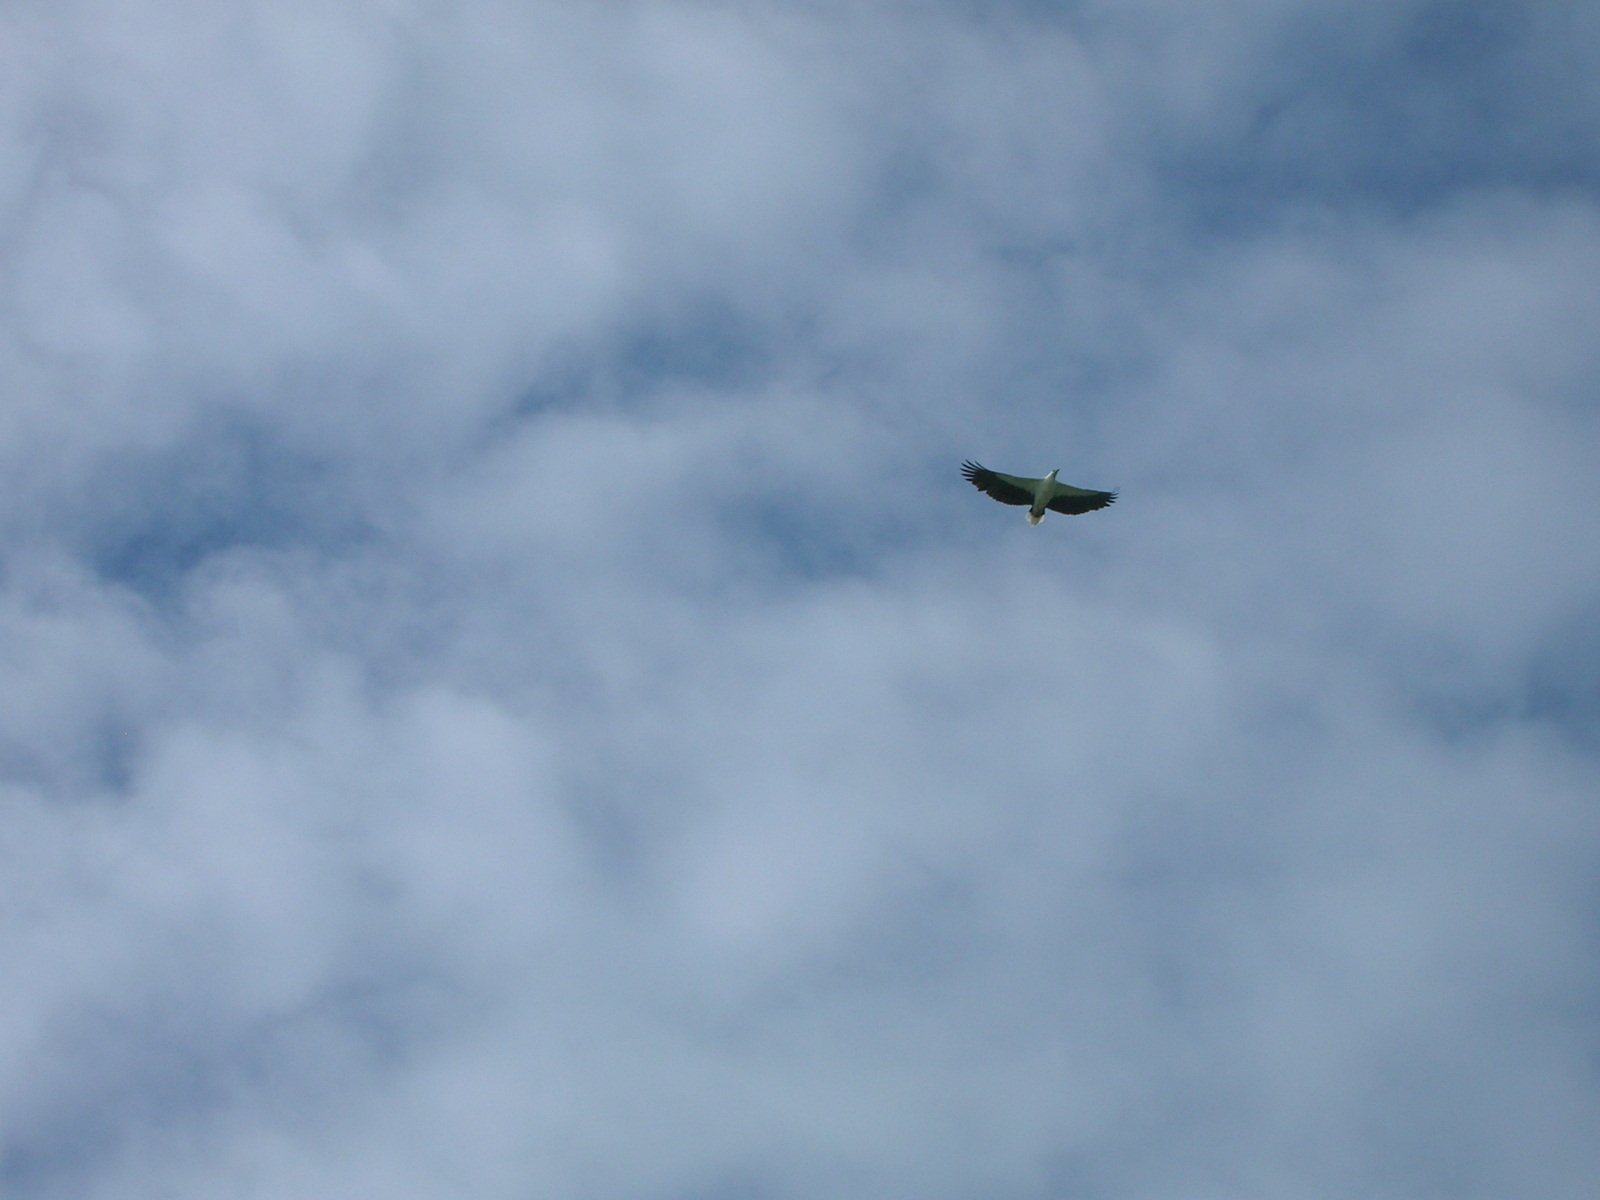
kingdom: Animalia
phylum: Chordata
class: Aves
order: Accipitriformes
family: Accipitridae
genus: Haliaeetus
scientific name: Haliaeetus leucogaster
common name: White-bellied sea eagle
